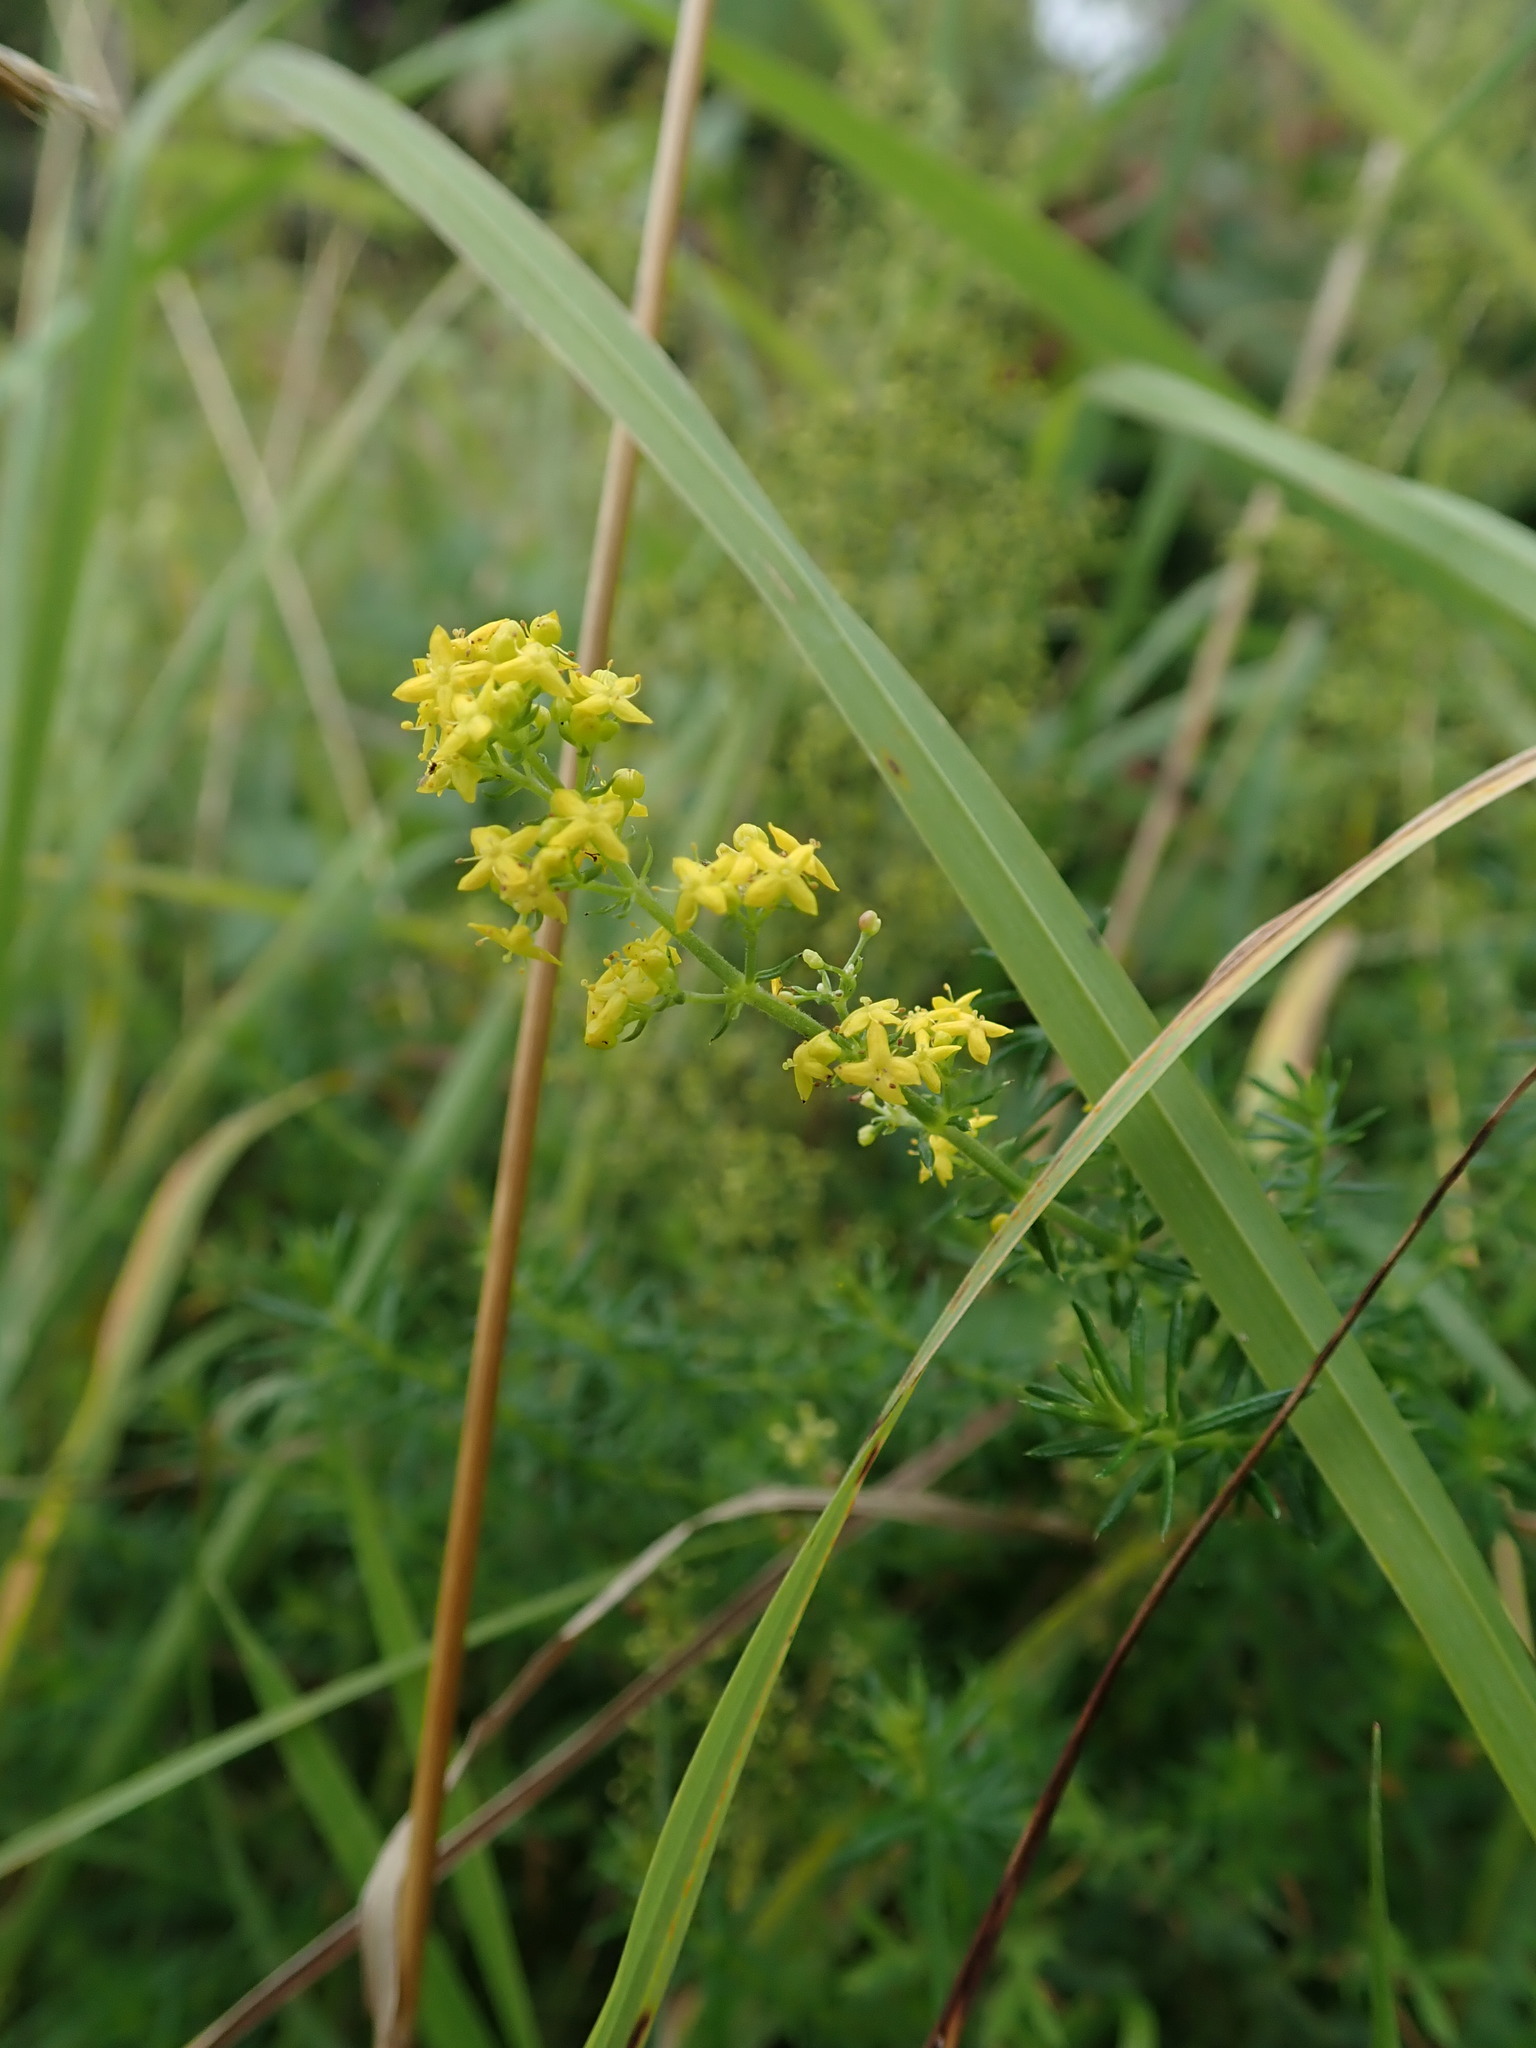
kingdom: Plantae
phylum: Tracheophyta
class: Magnoliopsida
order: Gentianales
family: Rubiaceae
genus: Galium
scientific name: Galium verum
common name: Lady's bedstraw
